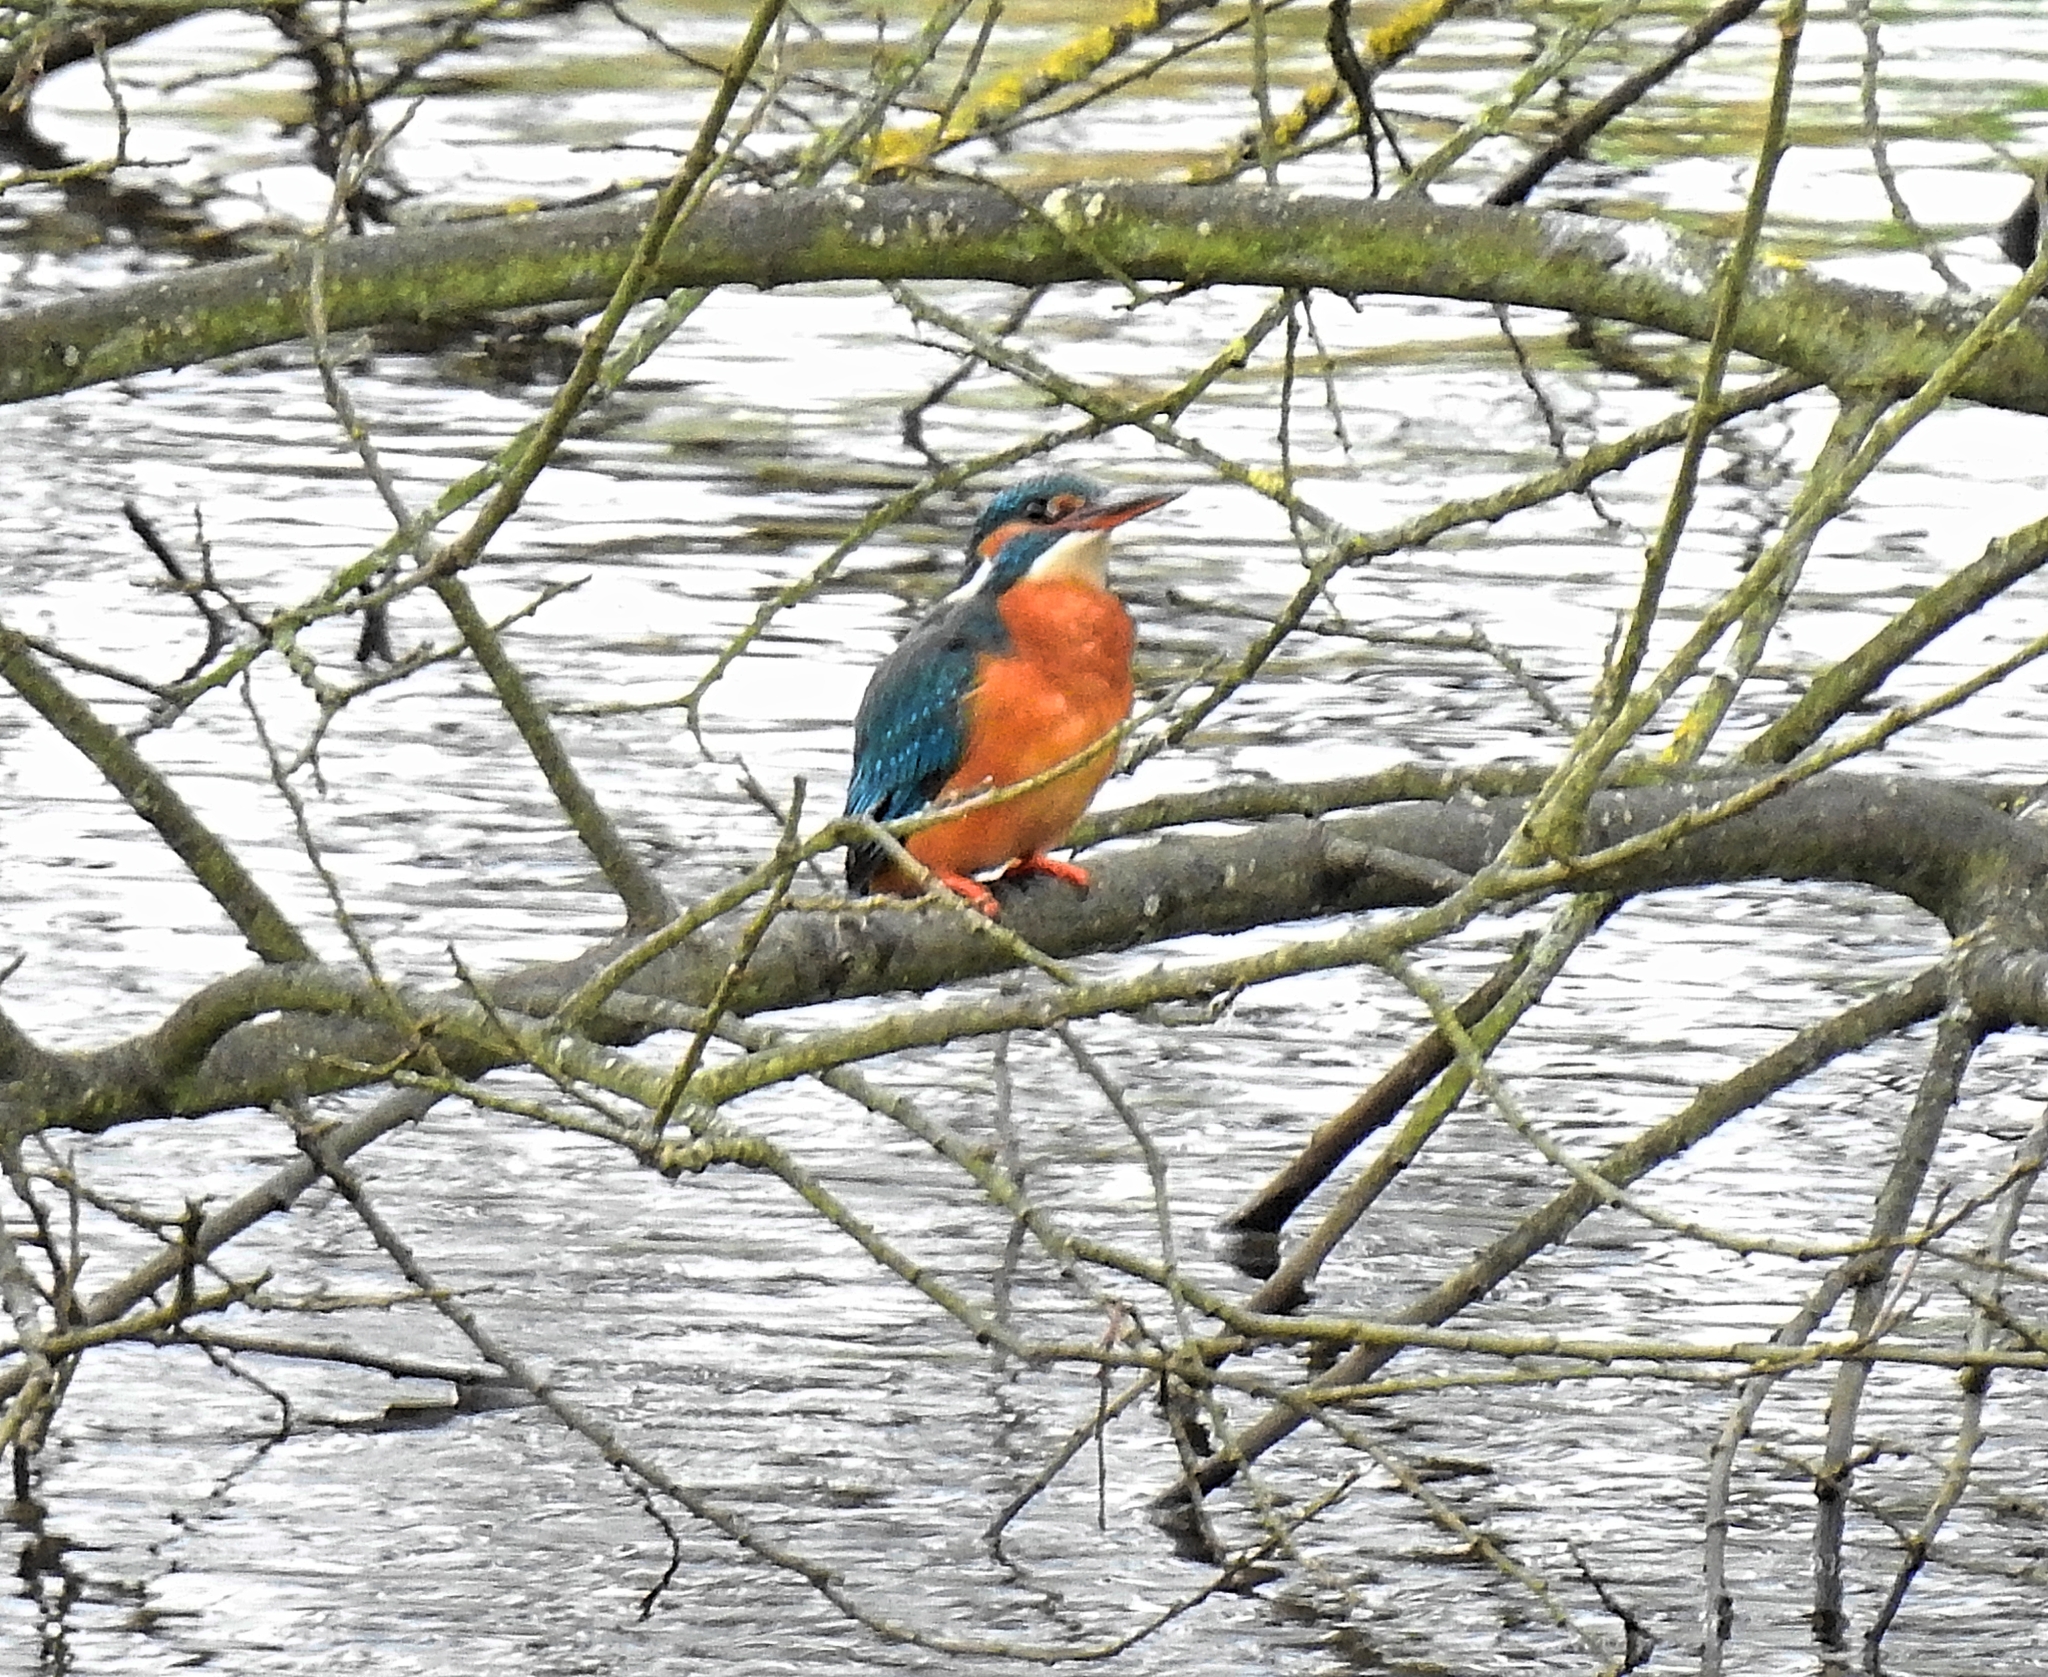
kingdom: Animalia
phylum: Chordata
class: Aves
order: Coraciiformes
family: Alcedinidae
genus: Alcedo
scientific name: Alcedo atthis
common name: Common kingfisher
